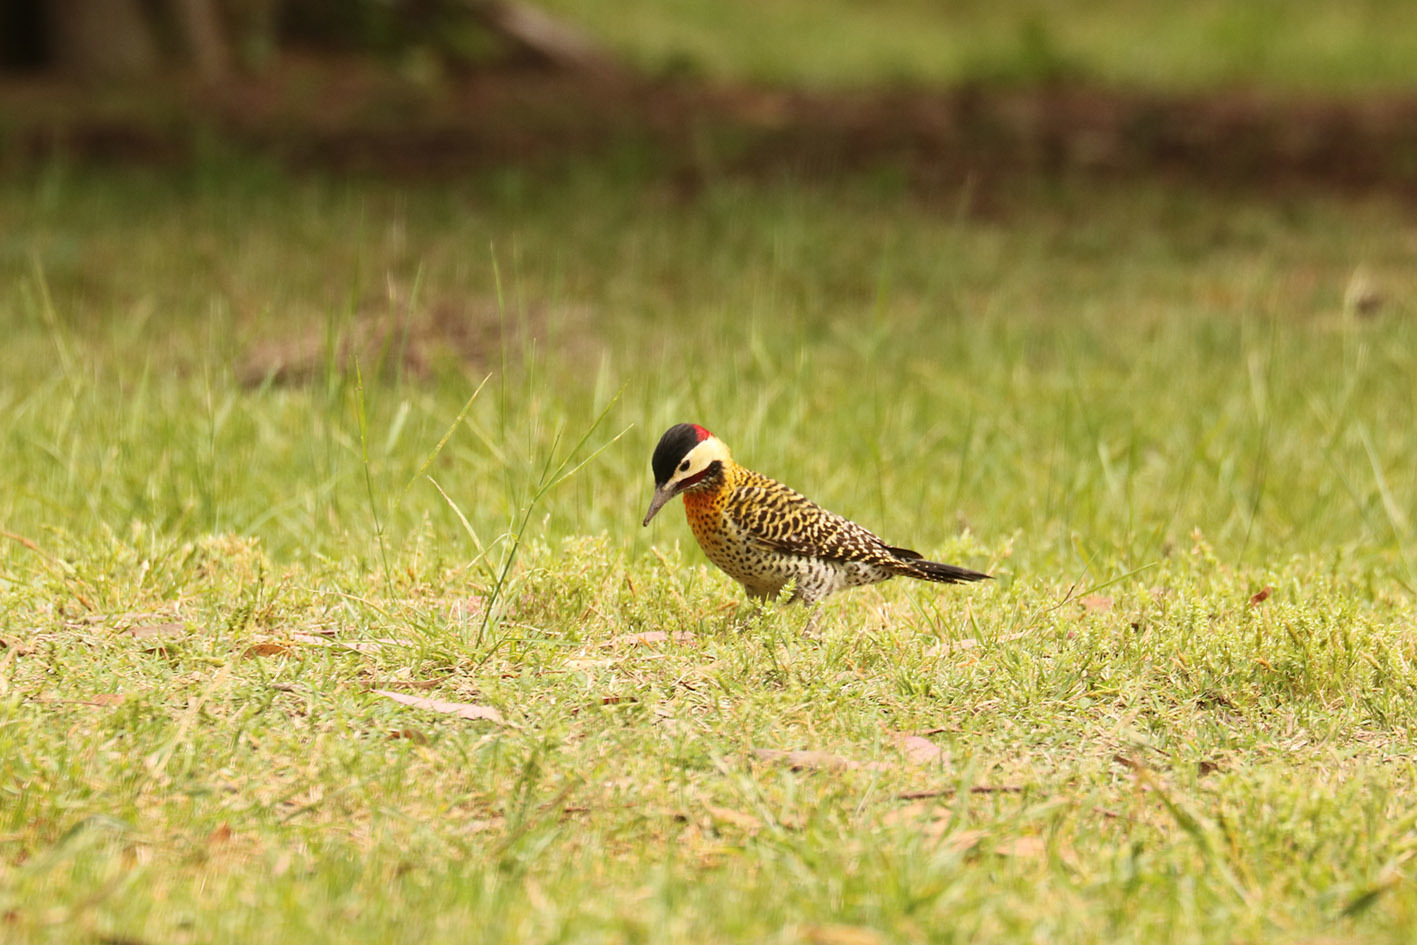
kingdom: Animalia
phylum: Chordata
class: Aves
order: Piciformes
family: Picidae
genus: Colaptes
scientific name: Colaptes melanochloros
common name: Green-barred woodpecker
